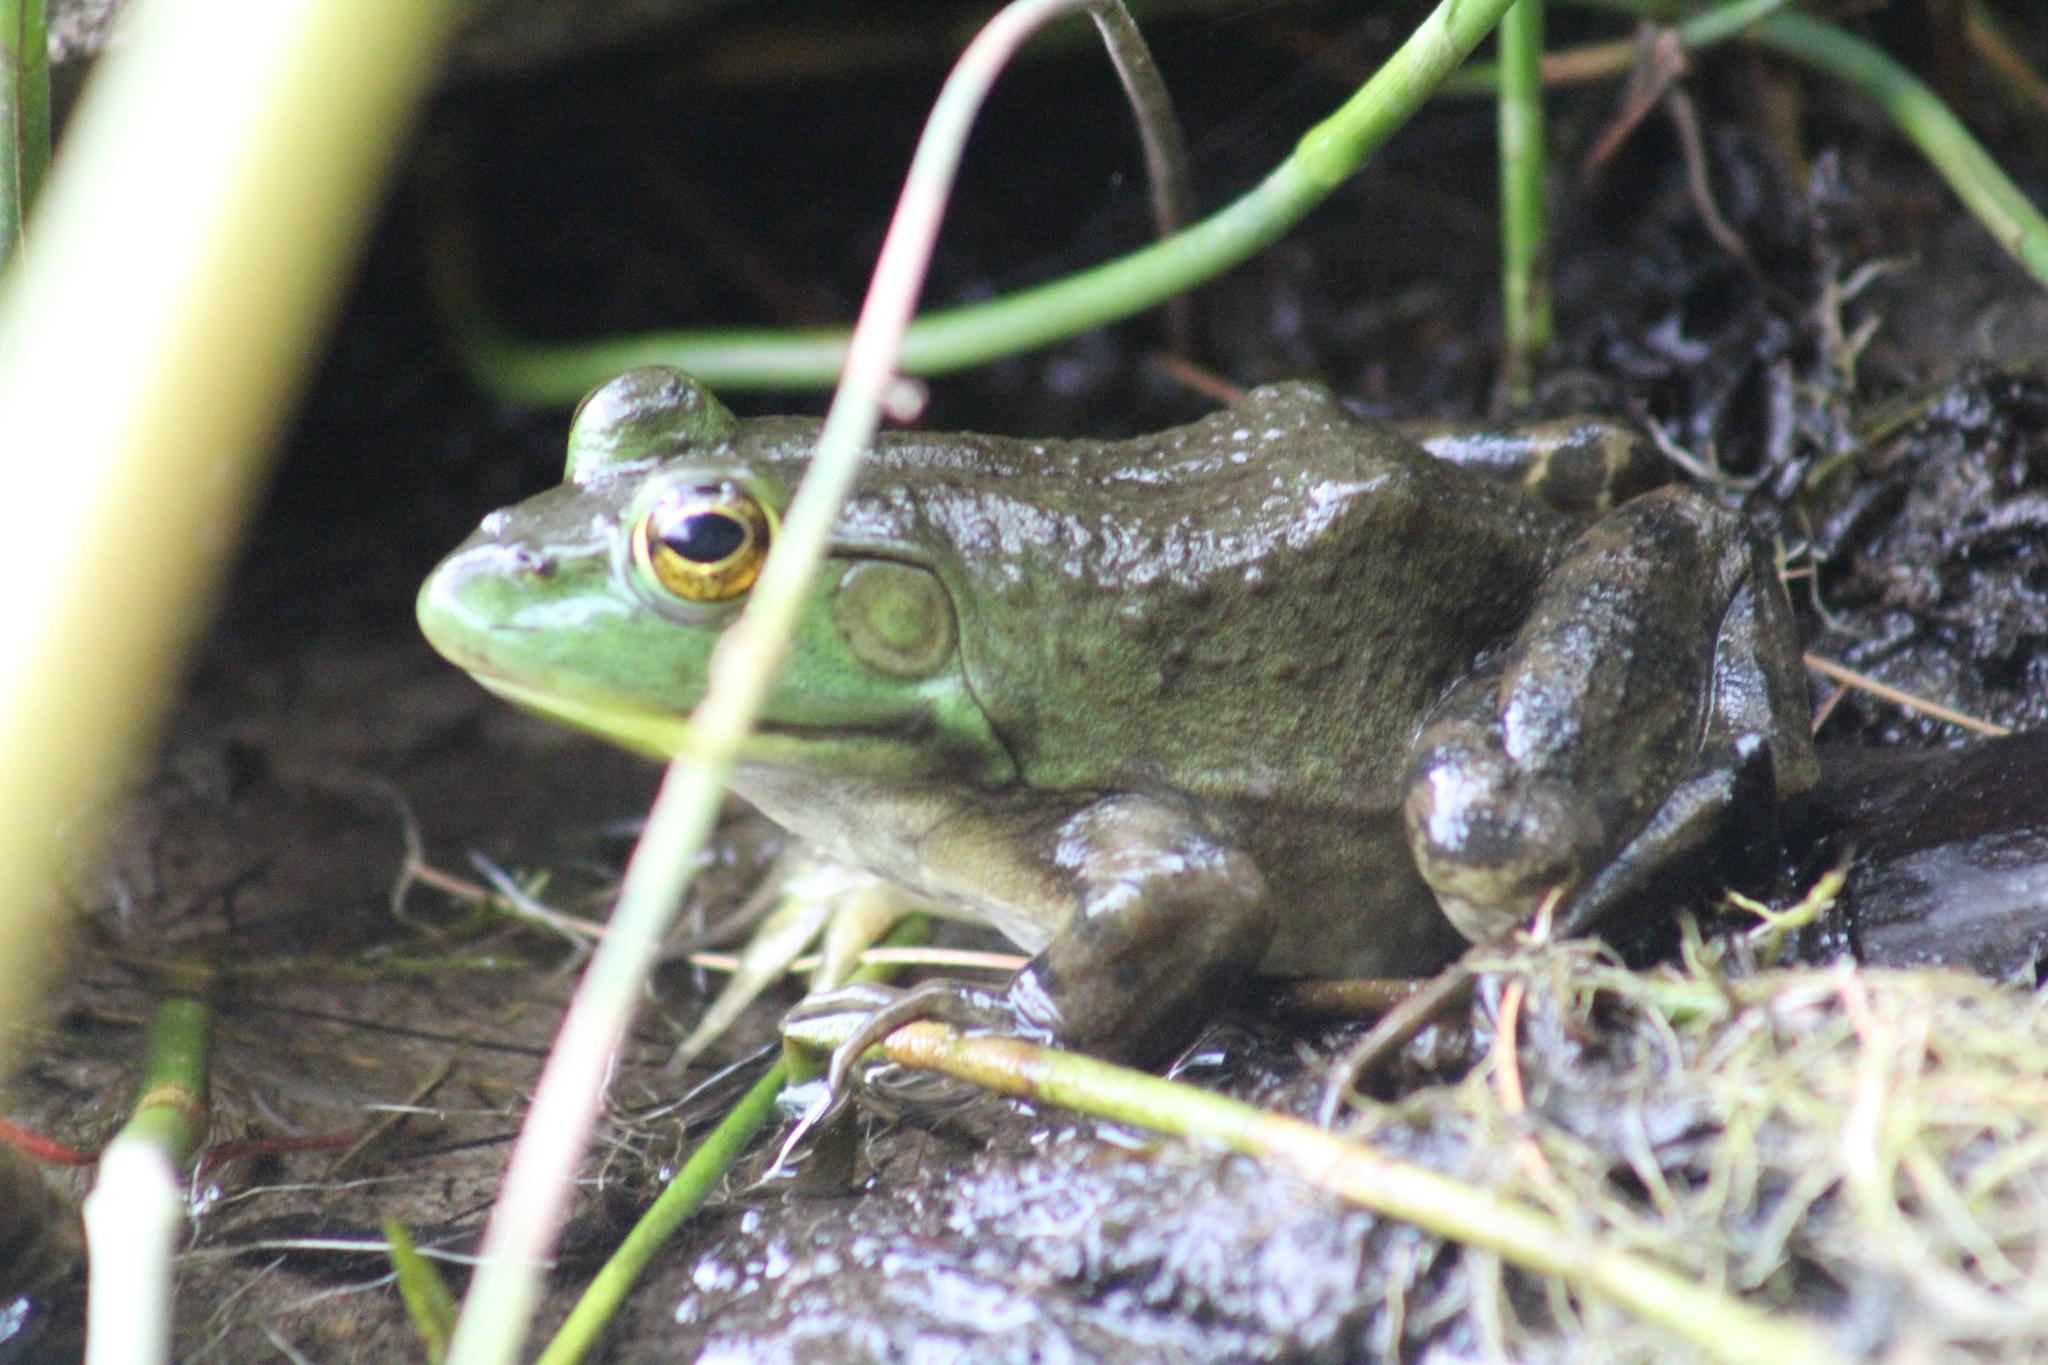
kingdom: Animalia
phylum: Chordata
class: Amphibia
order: Anura
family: Ranidae
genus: Lithobates
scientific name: Lithobates catesbeianus
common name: American bullfrog
